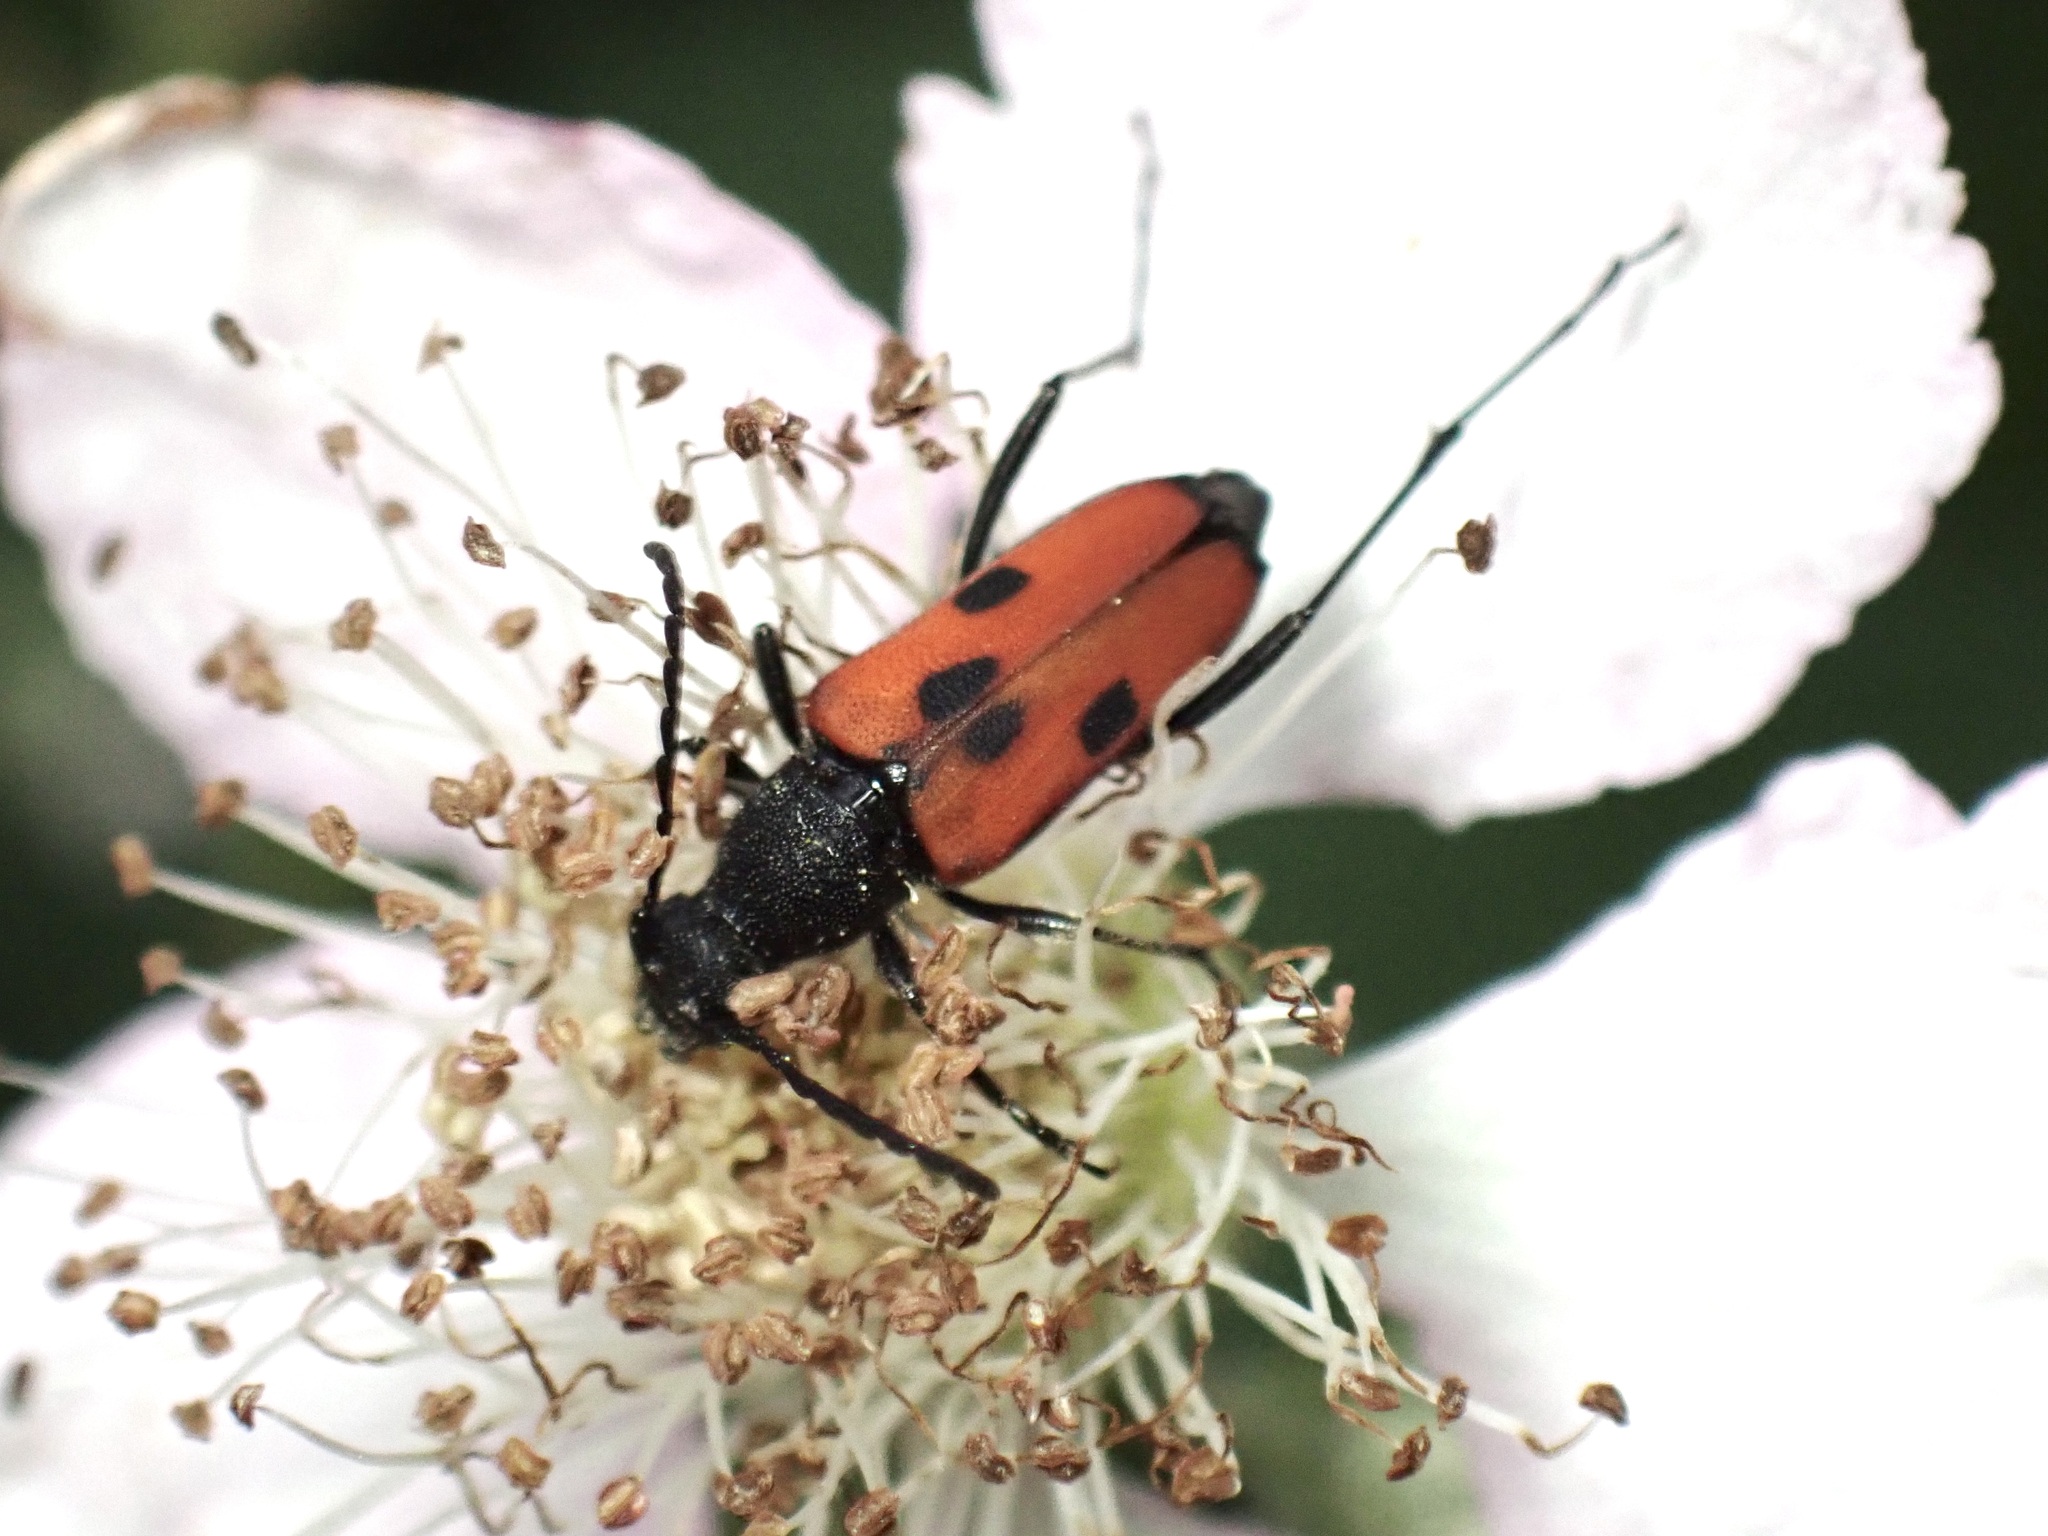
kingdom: Animalia
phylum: Arthropoda
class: Insecta
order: Coleoptera
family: Cerambycidae
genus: Anastrangalia
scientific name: Anastrangalia laetifica
